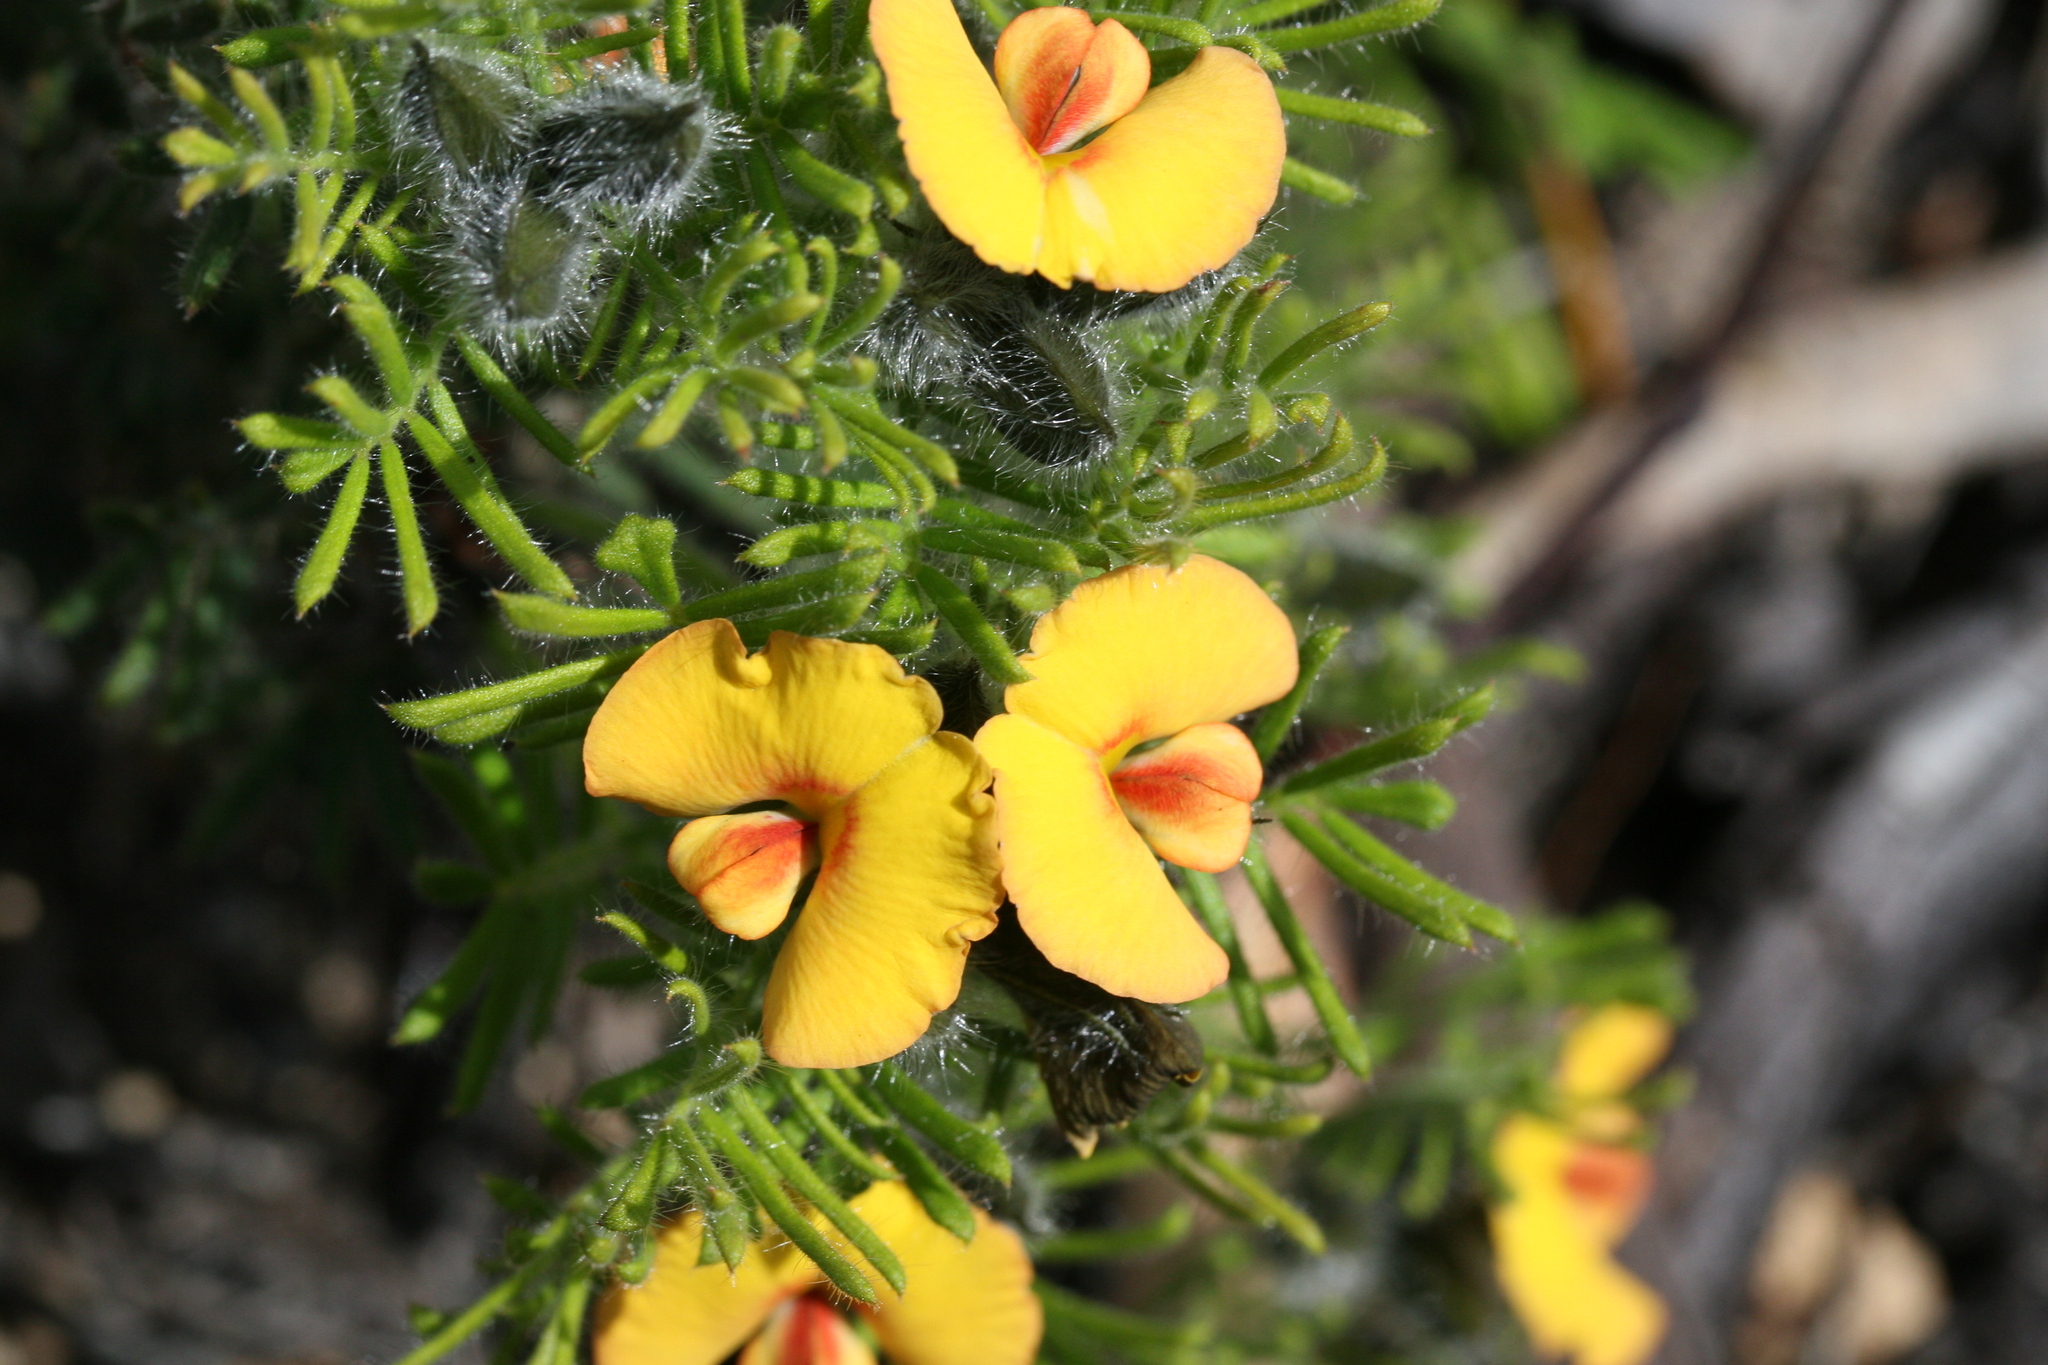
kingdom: Plantae
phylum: Tracheophyta
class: Magnoliopsida
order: Fabales
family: Fabaceae
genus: Gompholobium
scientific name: Gompholobium preissii
